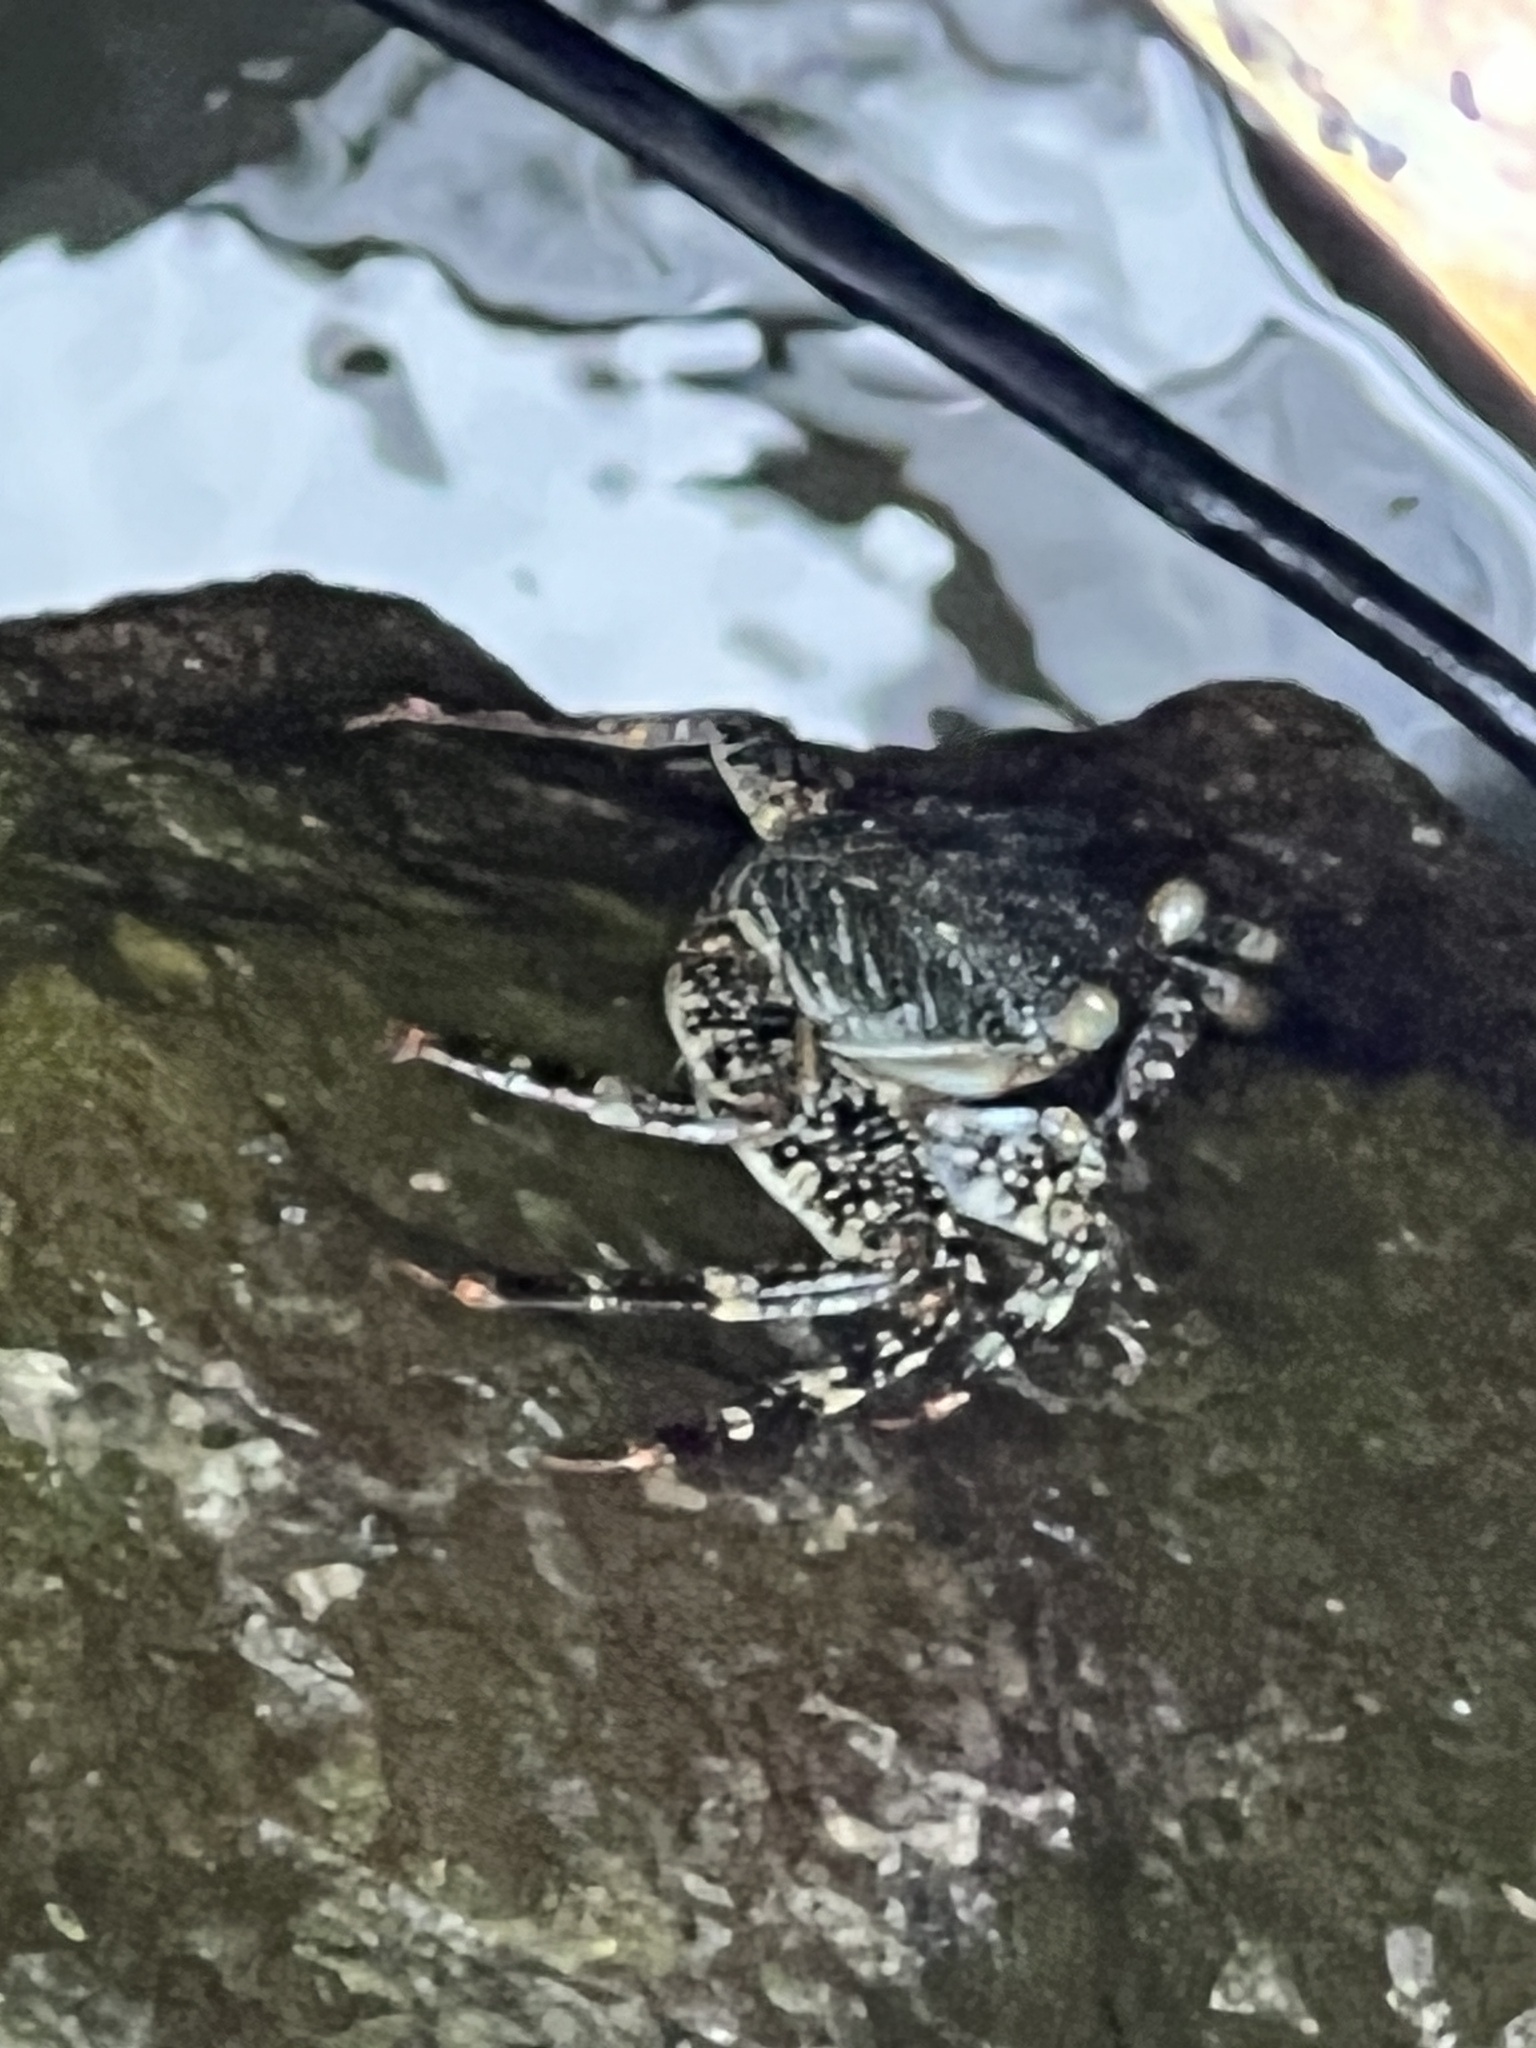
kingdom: Animalia
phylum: Arthropoda
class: Malacostraca
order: Decapoda
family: Grapsidae
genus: Grapsus
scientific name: Grapsus grapsus
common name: Sally lightfoot
